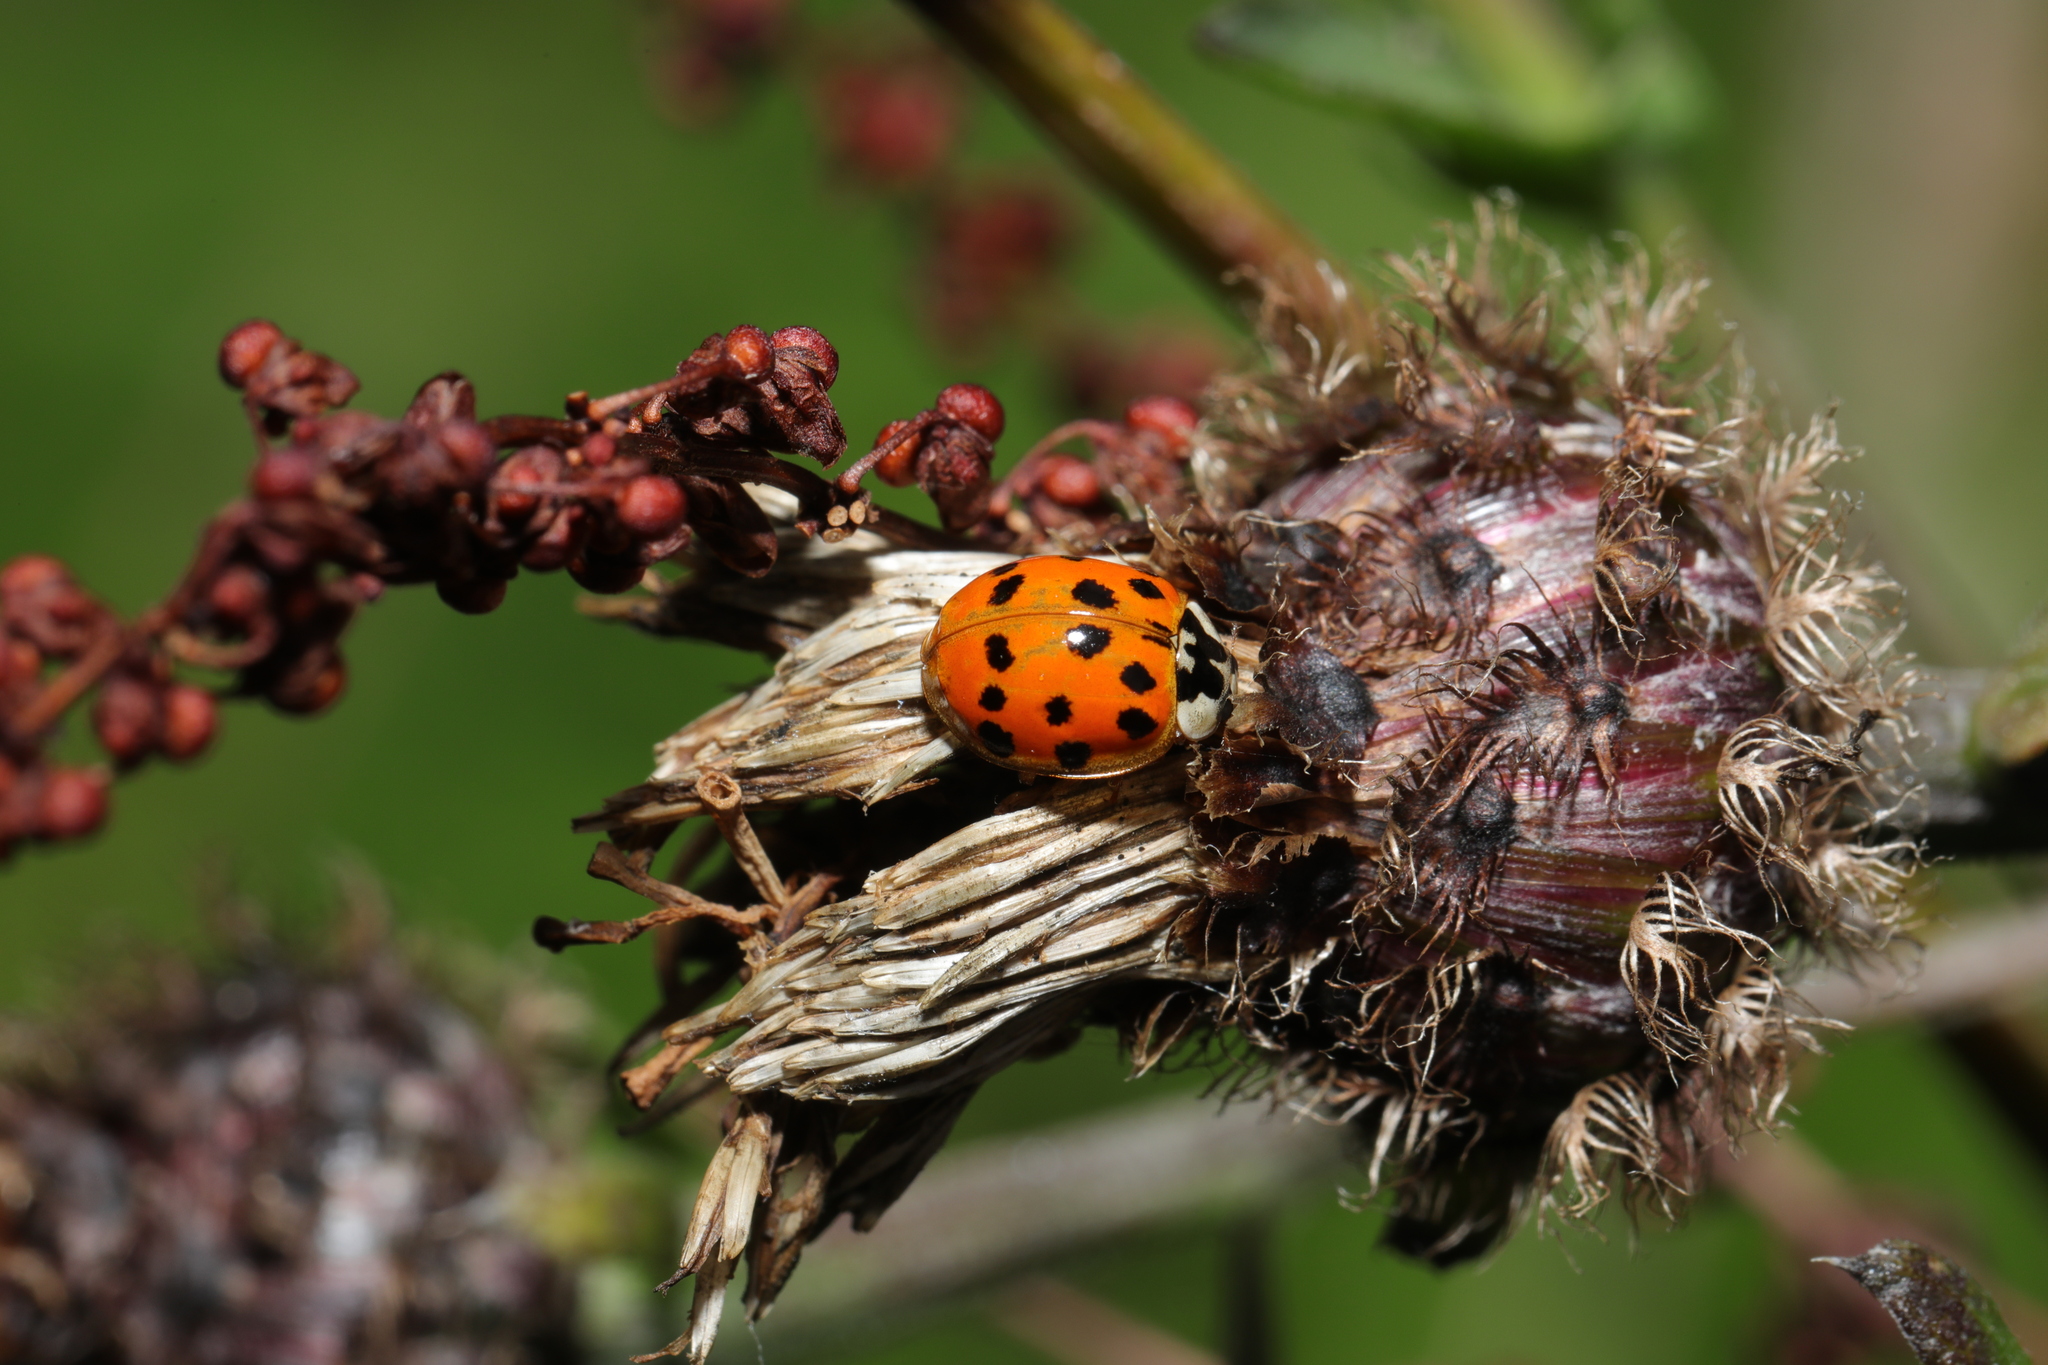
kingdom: Animalia
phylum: Arthropoda
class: Insecta
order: Coleoptera
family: Coccinellidae
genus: Harmonia
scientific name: Harmonia axyridis
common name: Harlequin ladybird
